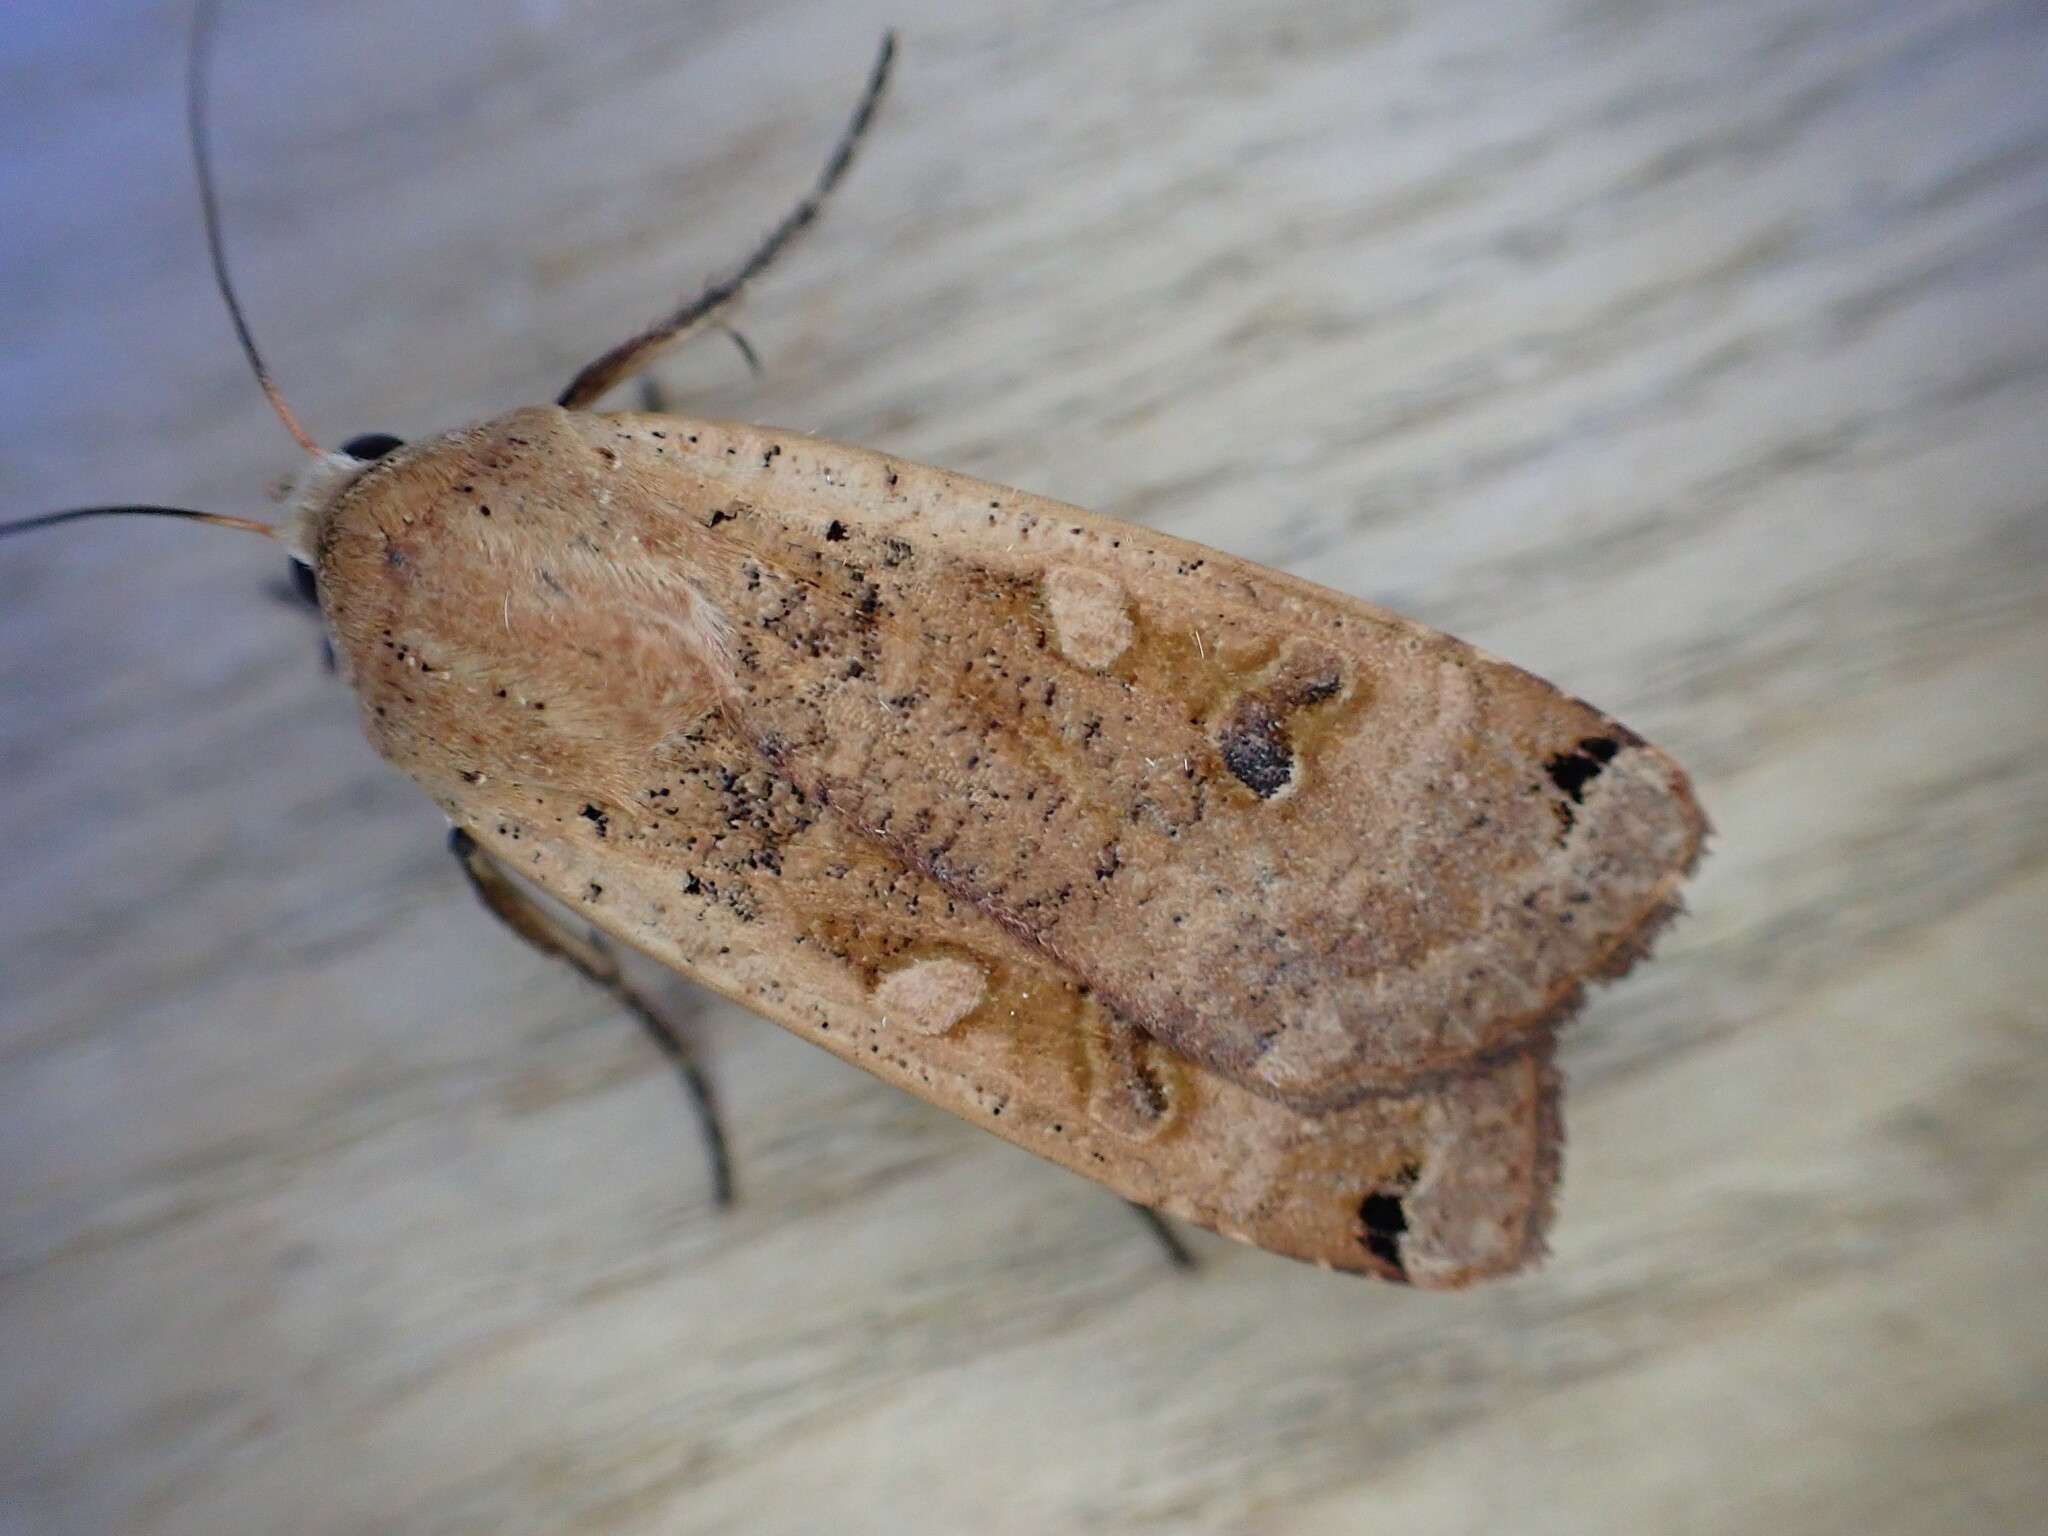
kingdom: Animalia
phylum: Arthropoda
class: Insecta
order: Lepidoptera
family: Noctuidae
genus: Noctua
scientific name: Noctua pronuba
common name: Large yellow underwing
